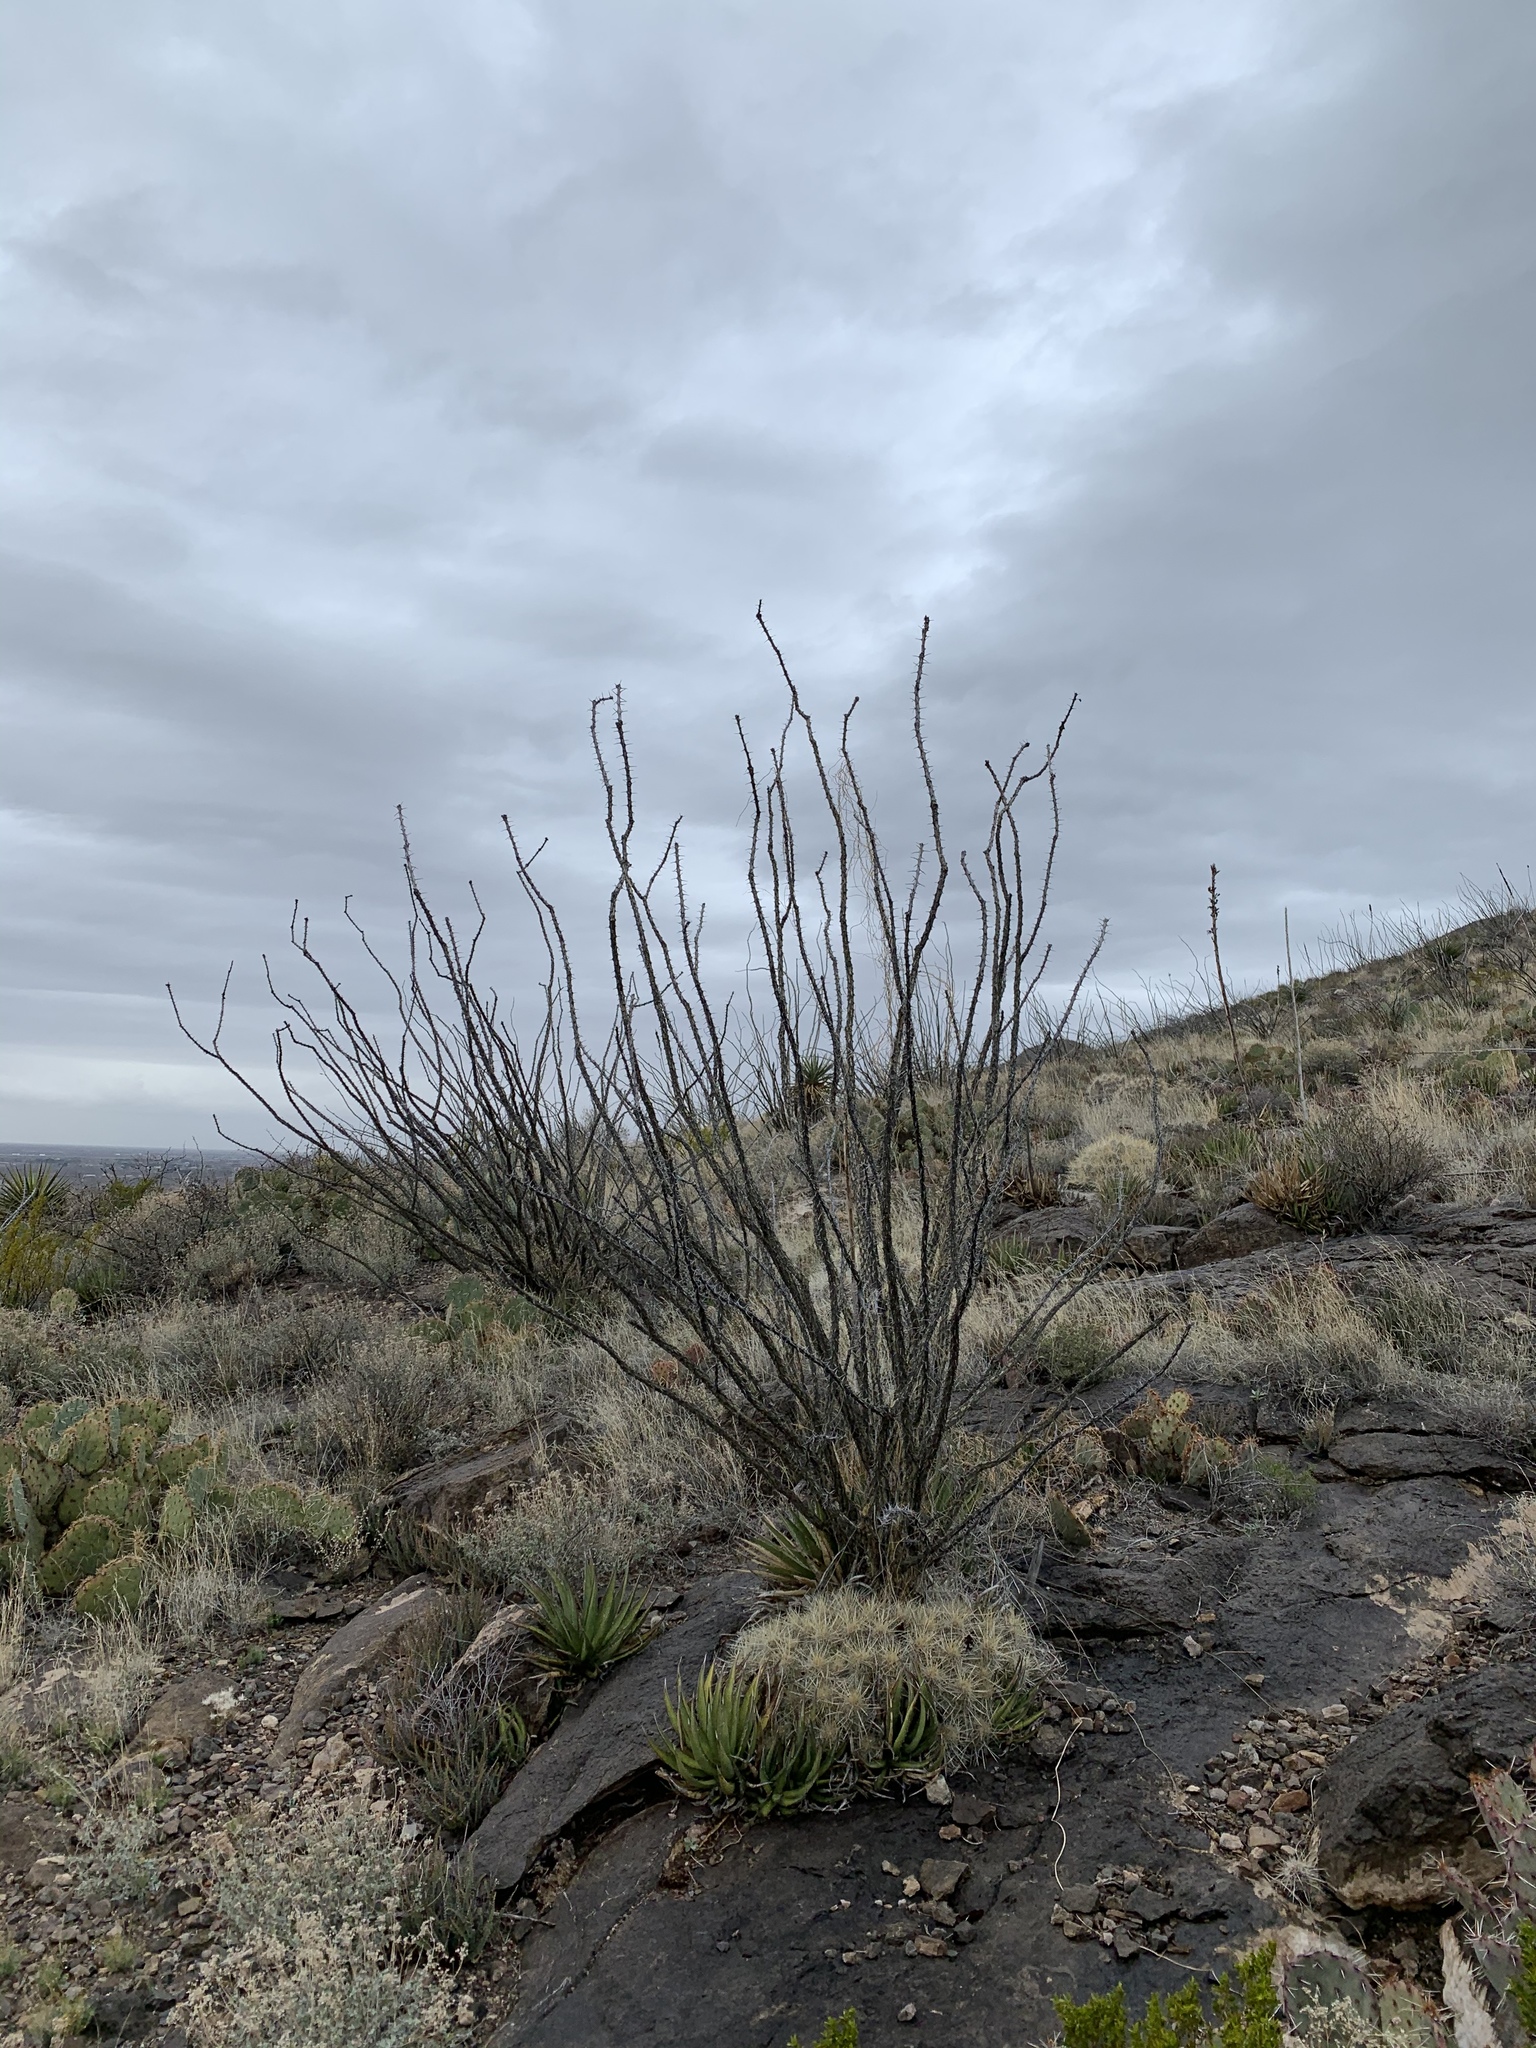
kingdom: Plantae
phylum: Tracheophyta
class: Magnoliopsida
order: Ericales
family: Fouquieriaceae
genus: Fouquieria
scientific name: Fouquieria splendens
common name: Vine-cactus
